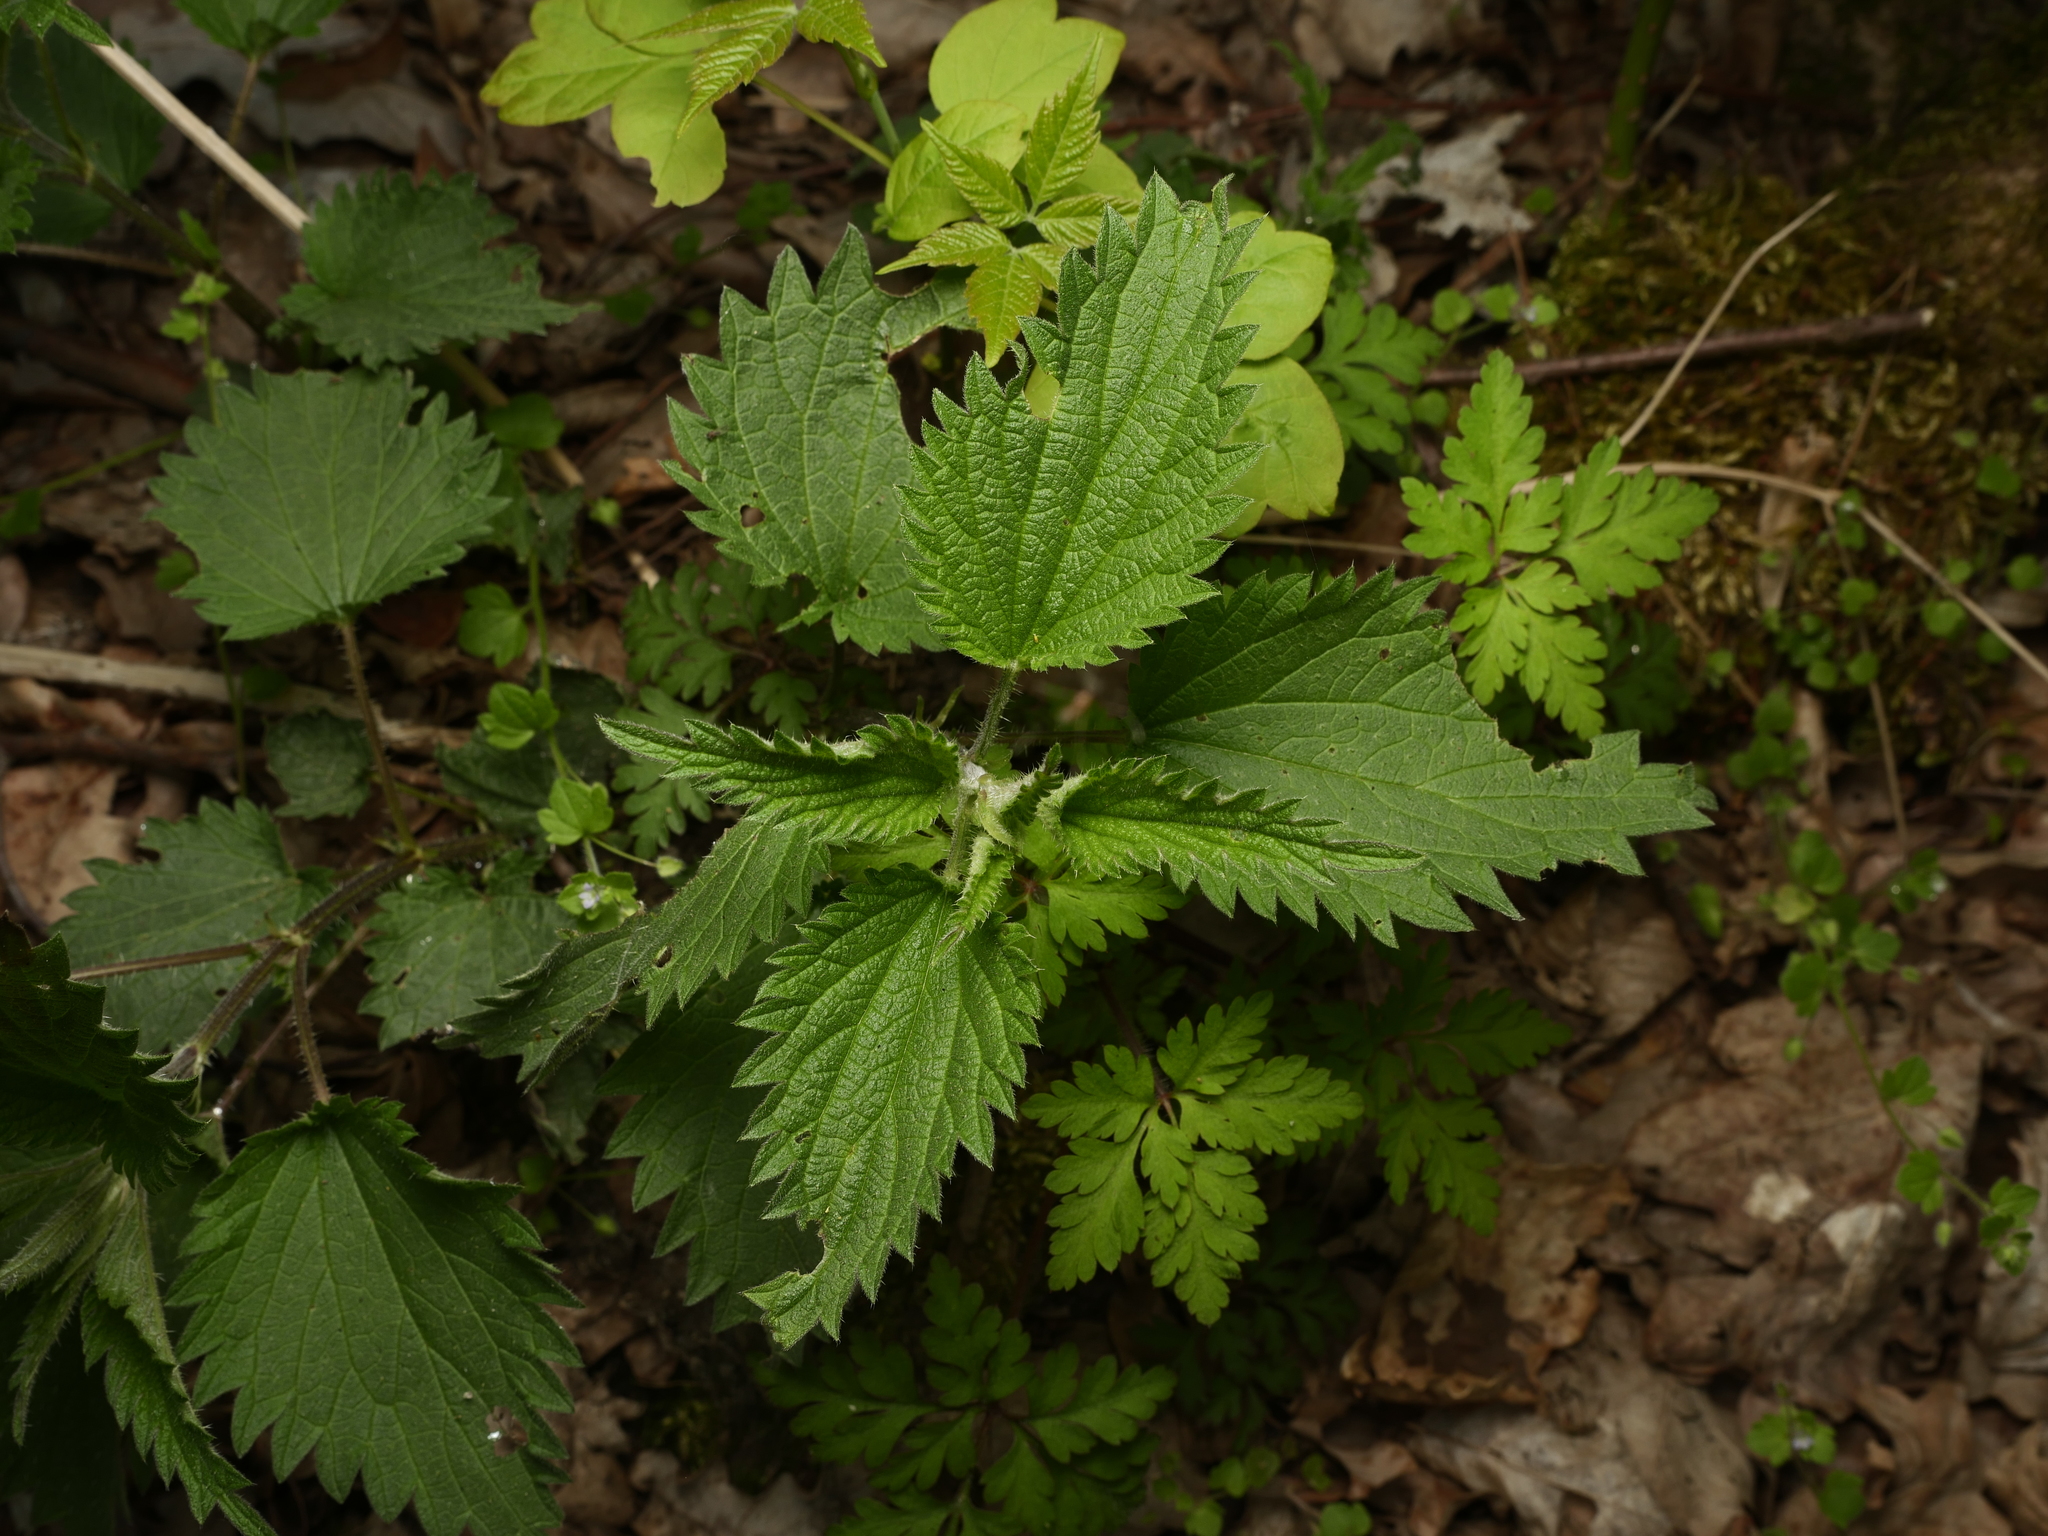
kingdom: Plantae
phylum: Tracheophyta
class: Magnoliopsida
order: Rosales
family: Urticaceae
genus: Urtica
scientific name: Urtica dioica
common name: Common nettle
